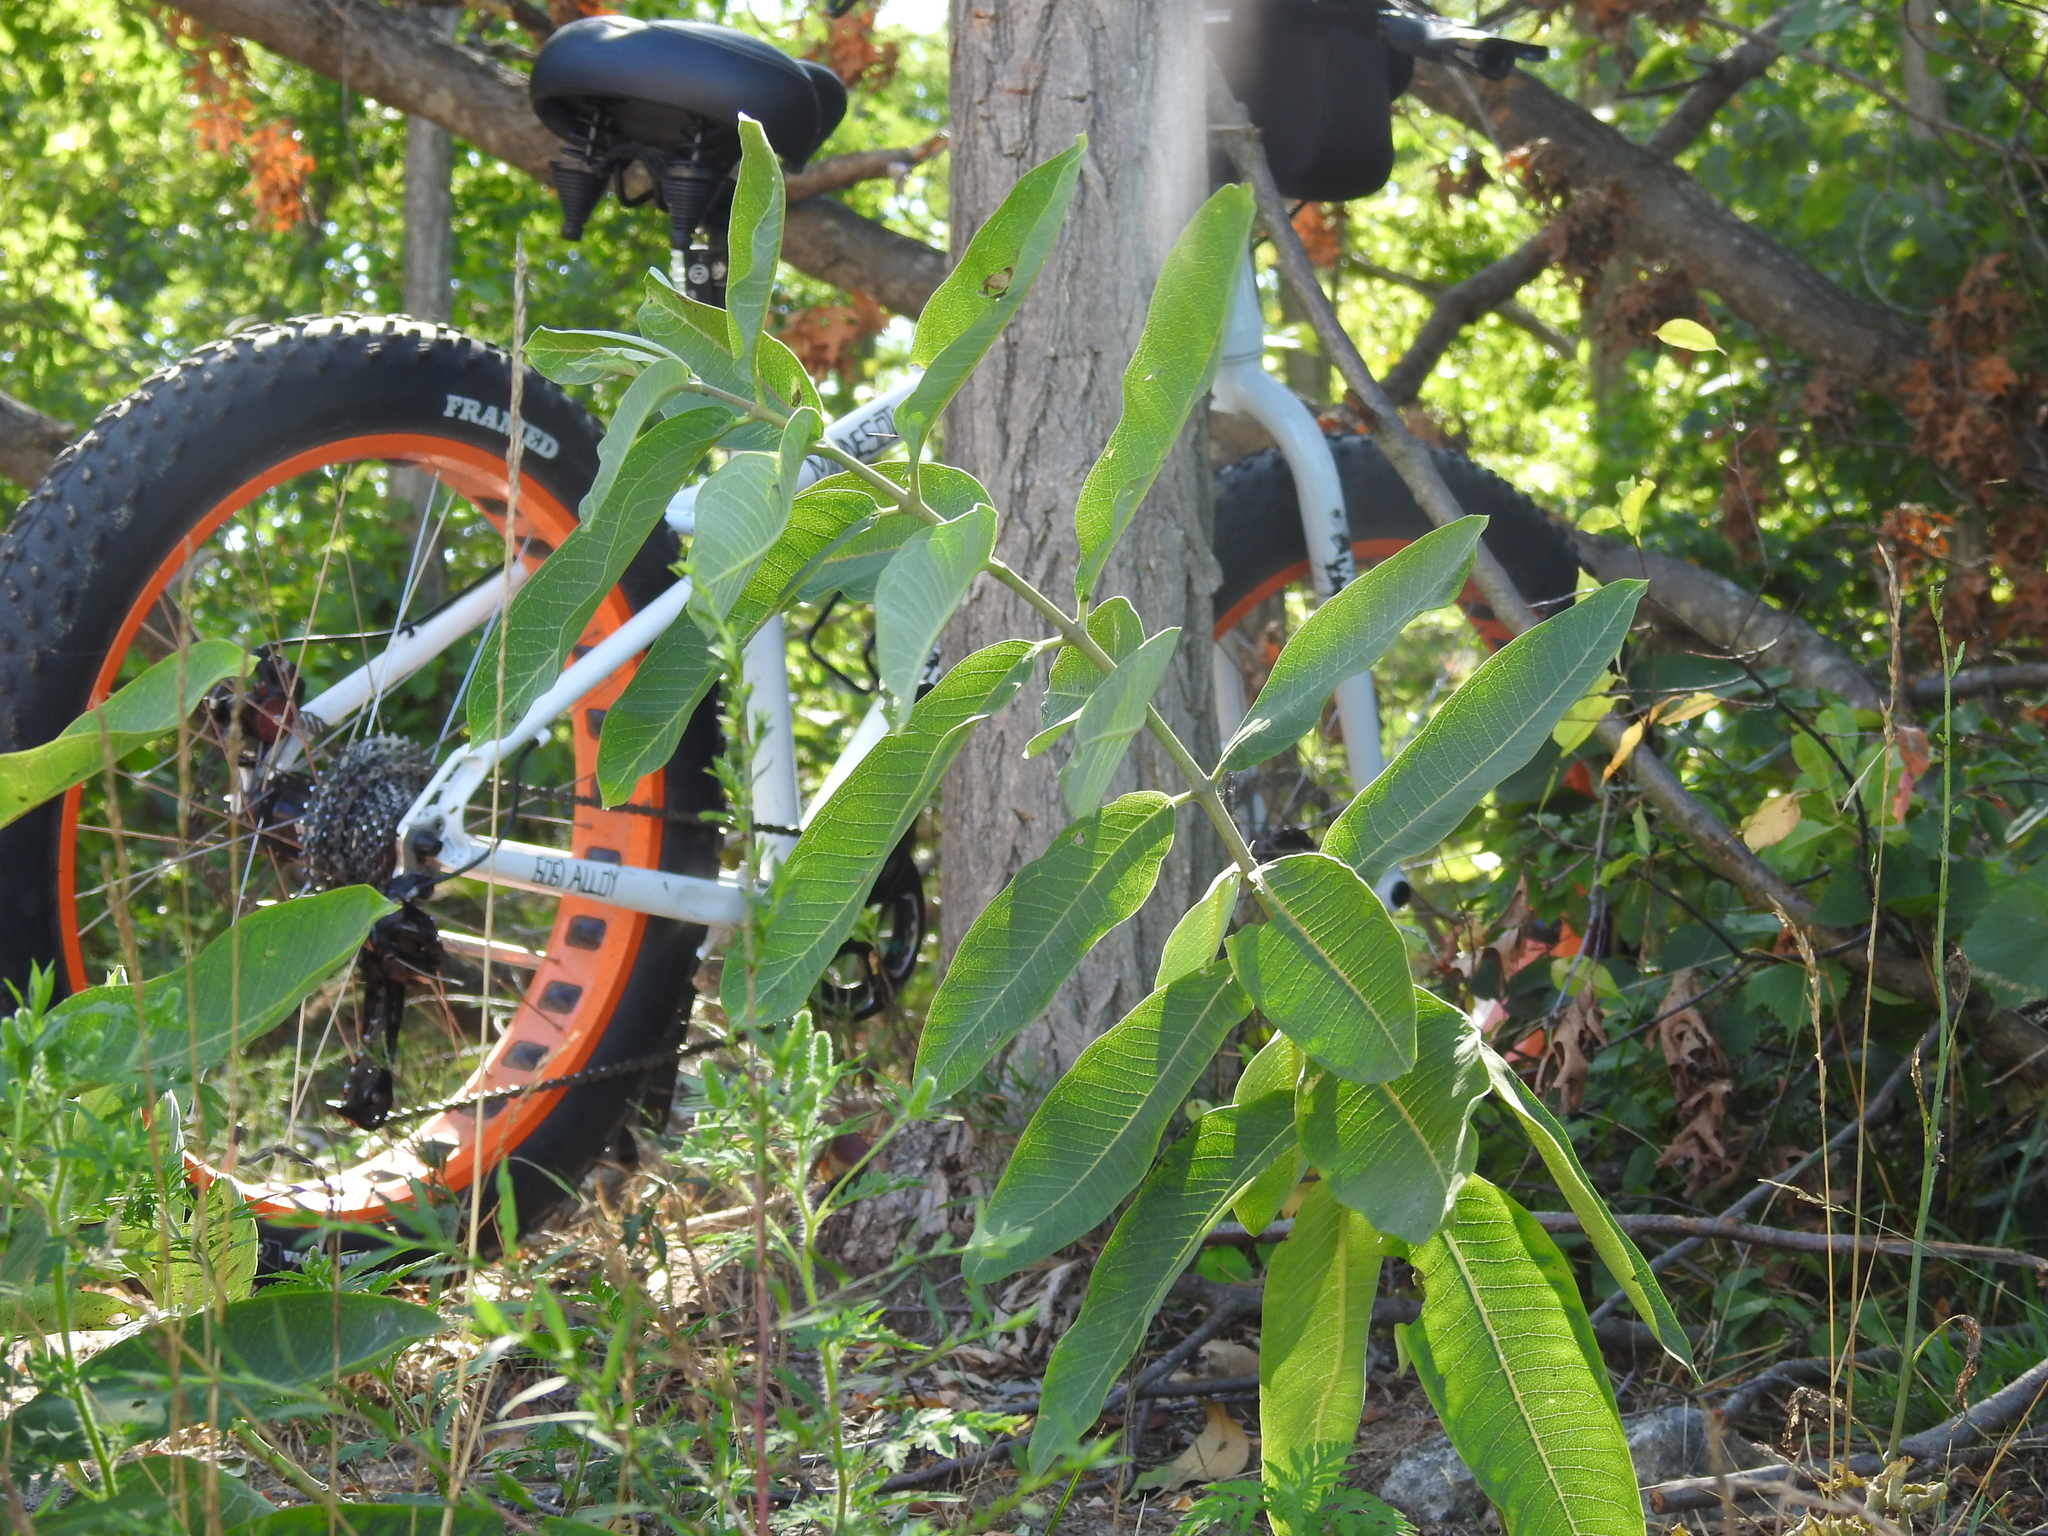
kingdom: Plantae
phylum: Tracheophyta
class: Magnoliopsida
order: Gentianales
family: Apocynaceae
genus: Asclepias
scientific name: Asclepias syriaca
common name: Common milkweed
